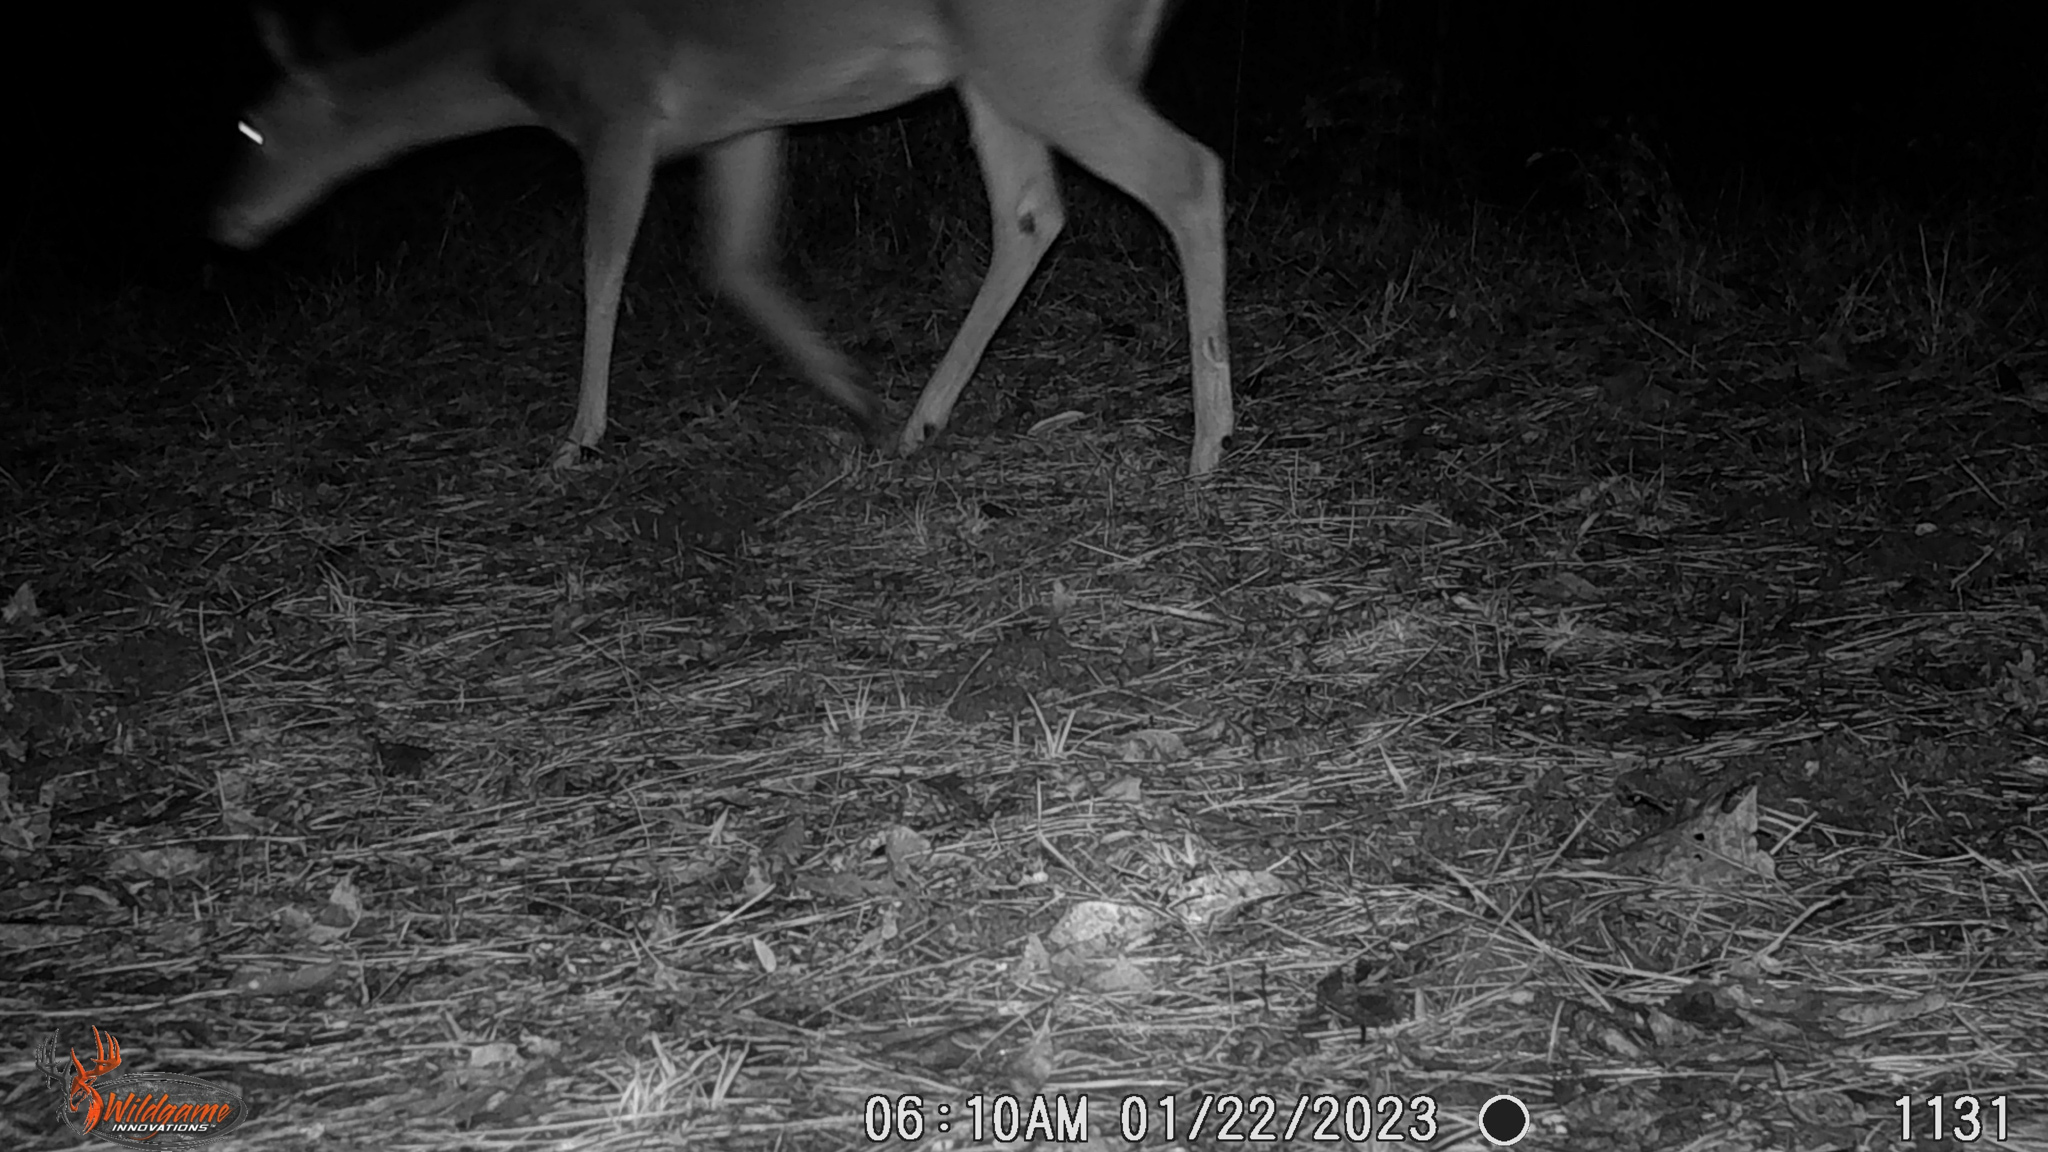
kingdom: Animalia
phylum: Chordata
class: Mammalia
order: Artiodactyla
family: Cervidae
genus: Odocoileus
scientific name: Odocoileus virginianus
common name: White-tailed deer
